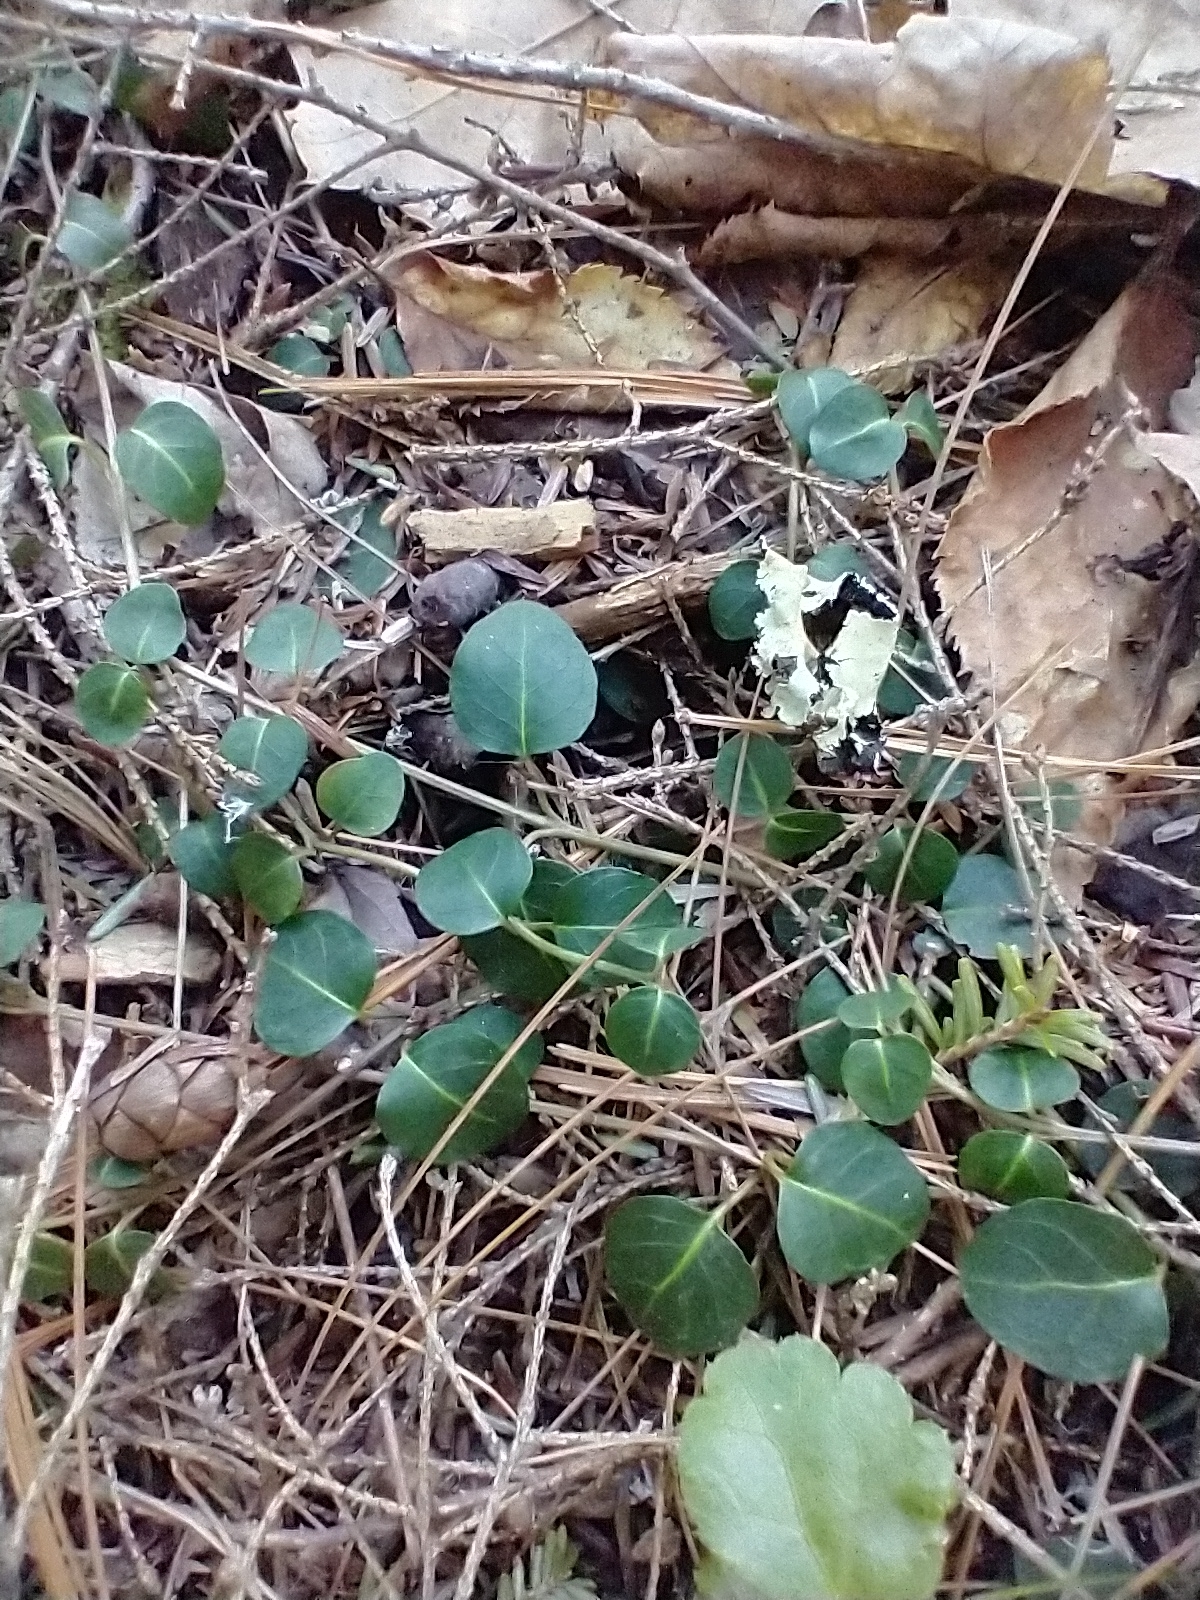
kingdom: Plantae
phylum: Tracheophyta
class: Magnoliopsida
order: Gentianales
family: Rubiaceae
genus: Mitchella
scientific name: Mitchella repens
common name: Partridge-berry
